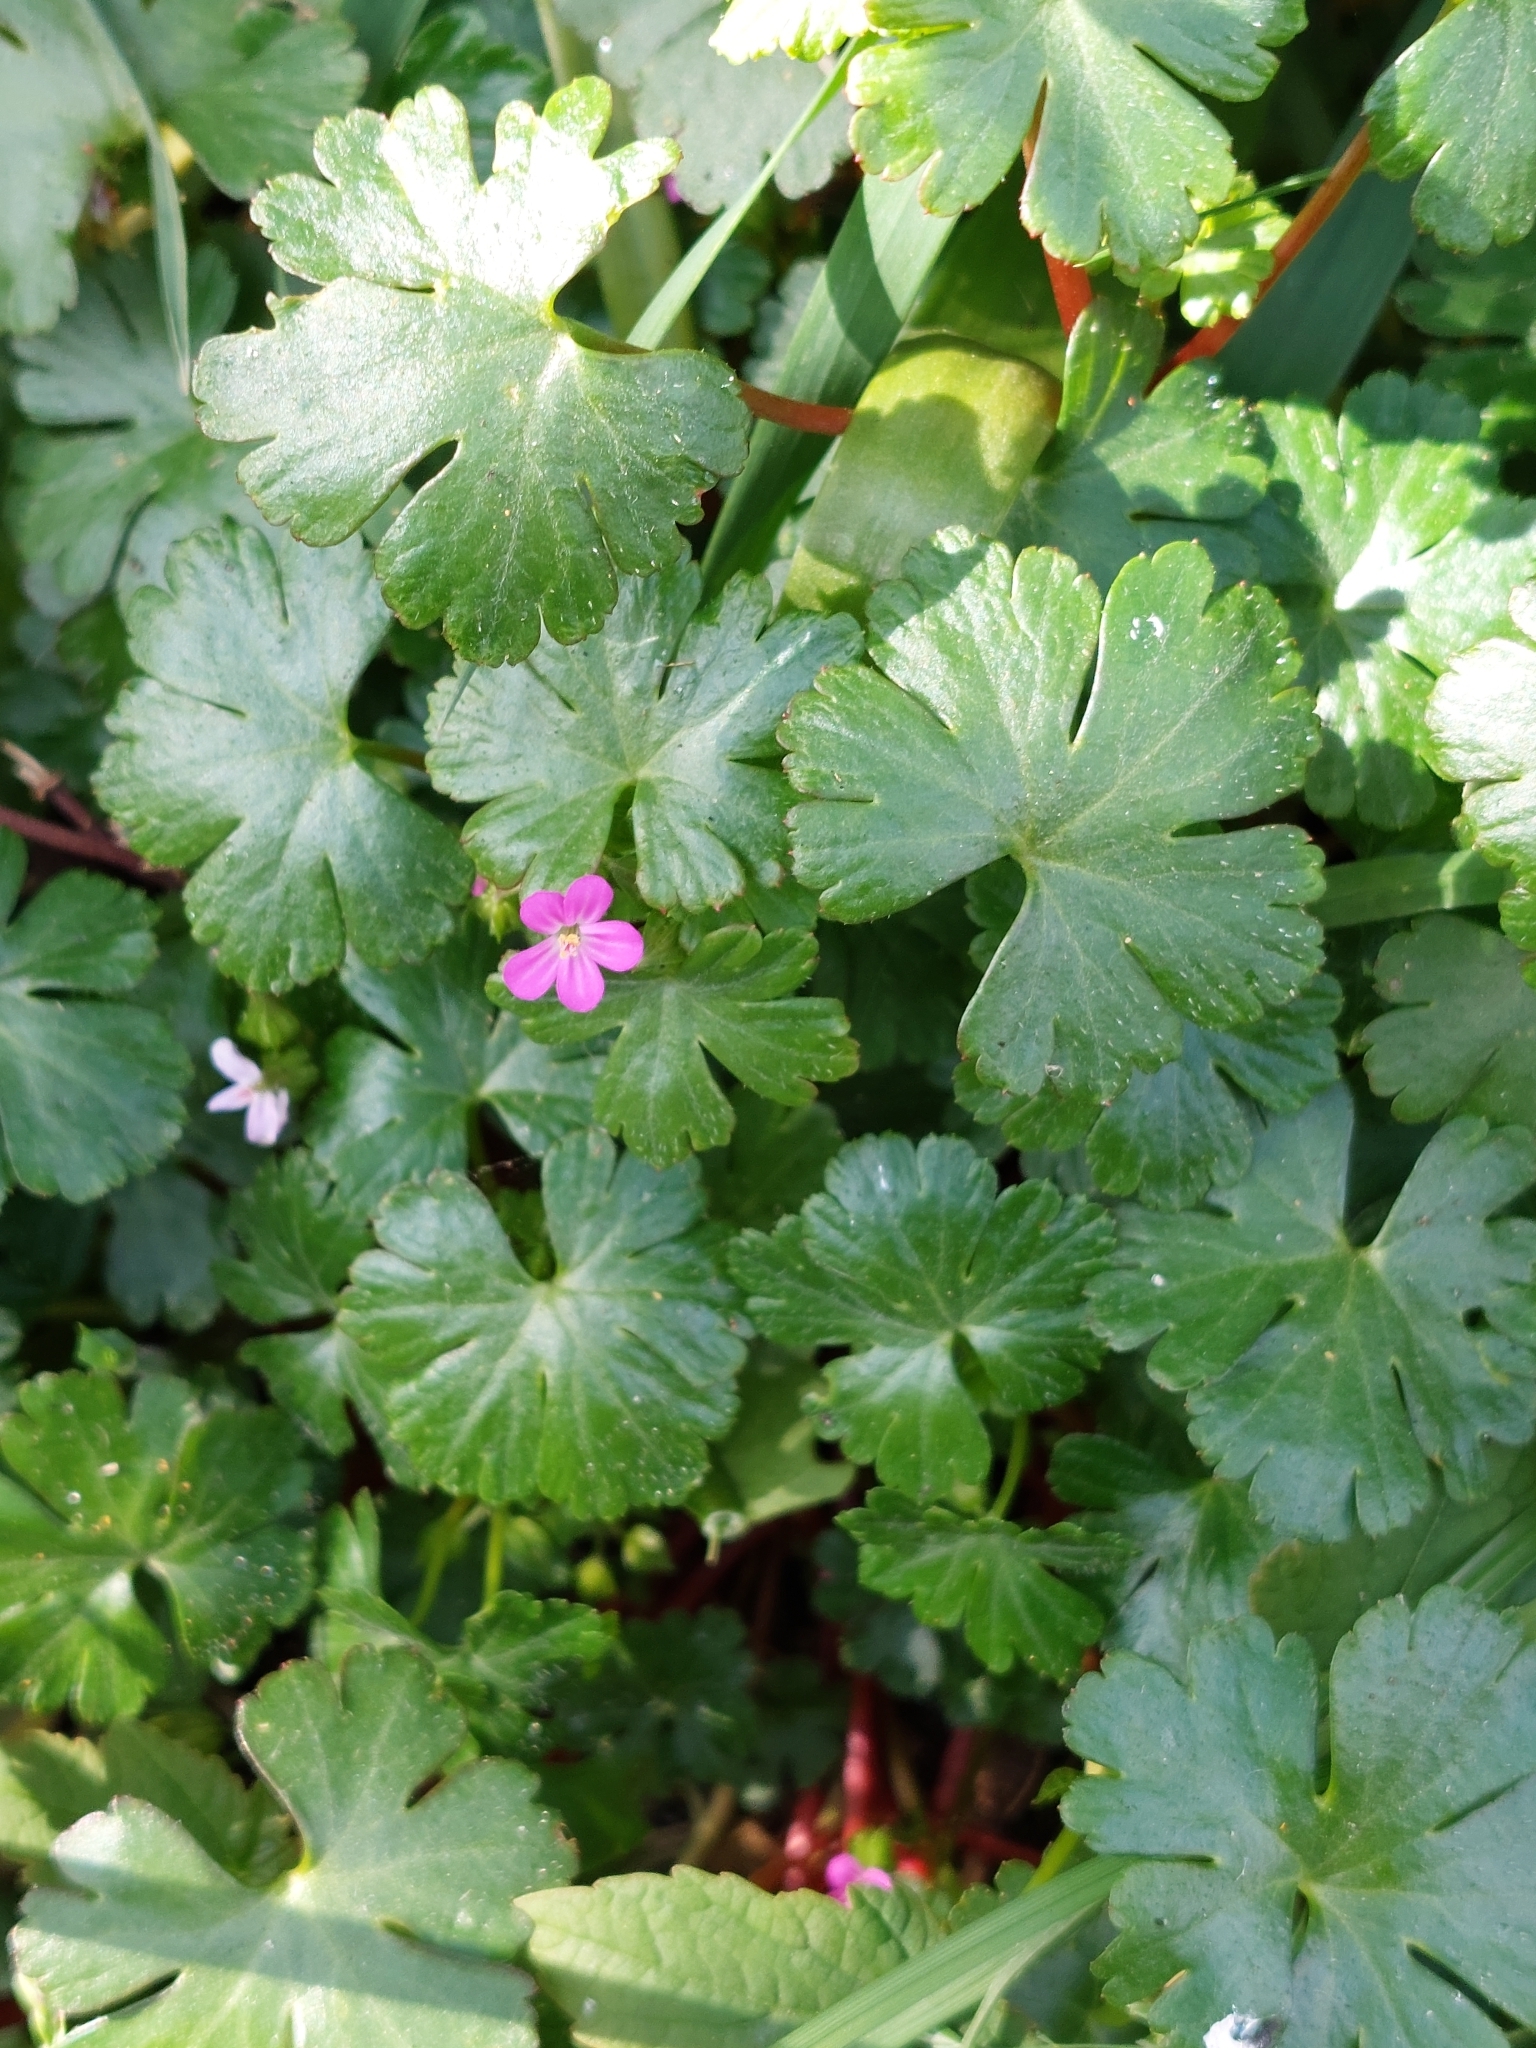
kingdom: Plantae
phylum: Tracheophyta
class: Magnoliopsida
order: Geraniales
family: Geraniaceae
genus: Geranium
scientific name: Geranium lucidum
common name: Shining crane's-bill
